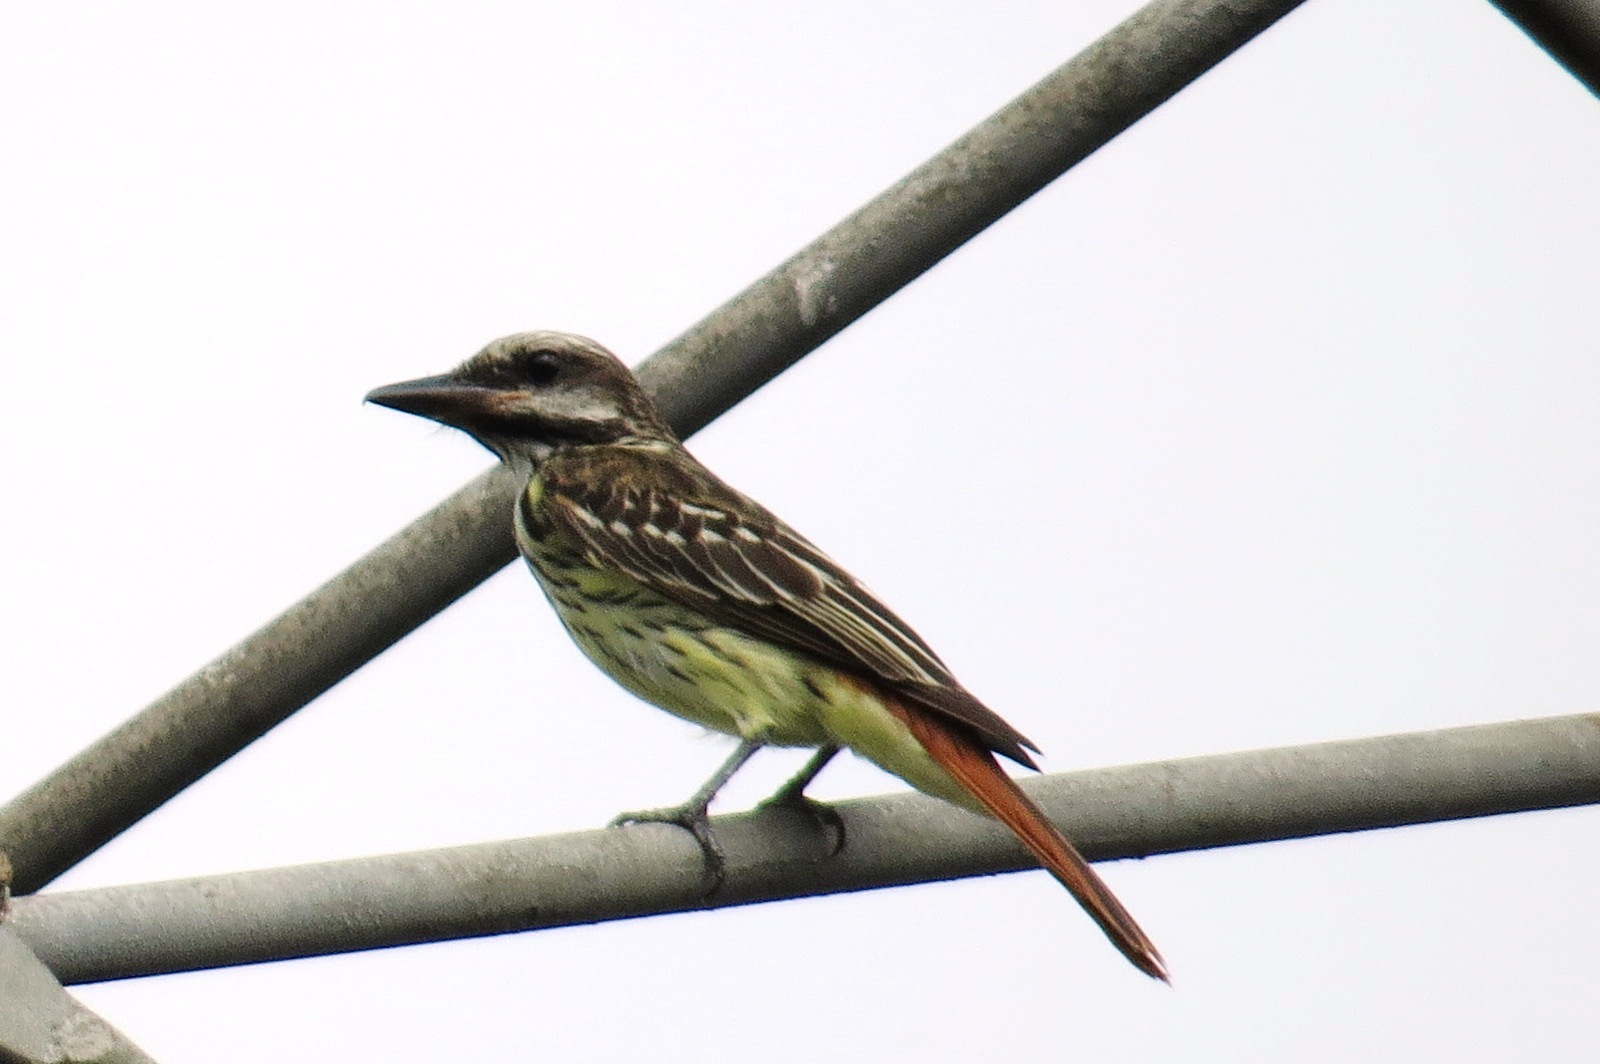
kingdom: Animalia
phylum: Chordata
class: Aves
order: Passeriformes
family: Tyrannidae
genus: Myiodynastes
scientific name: Myiodynastes luteiventris
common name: Sulphur-bellied flycatcher
